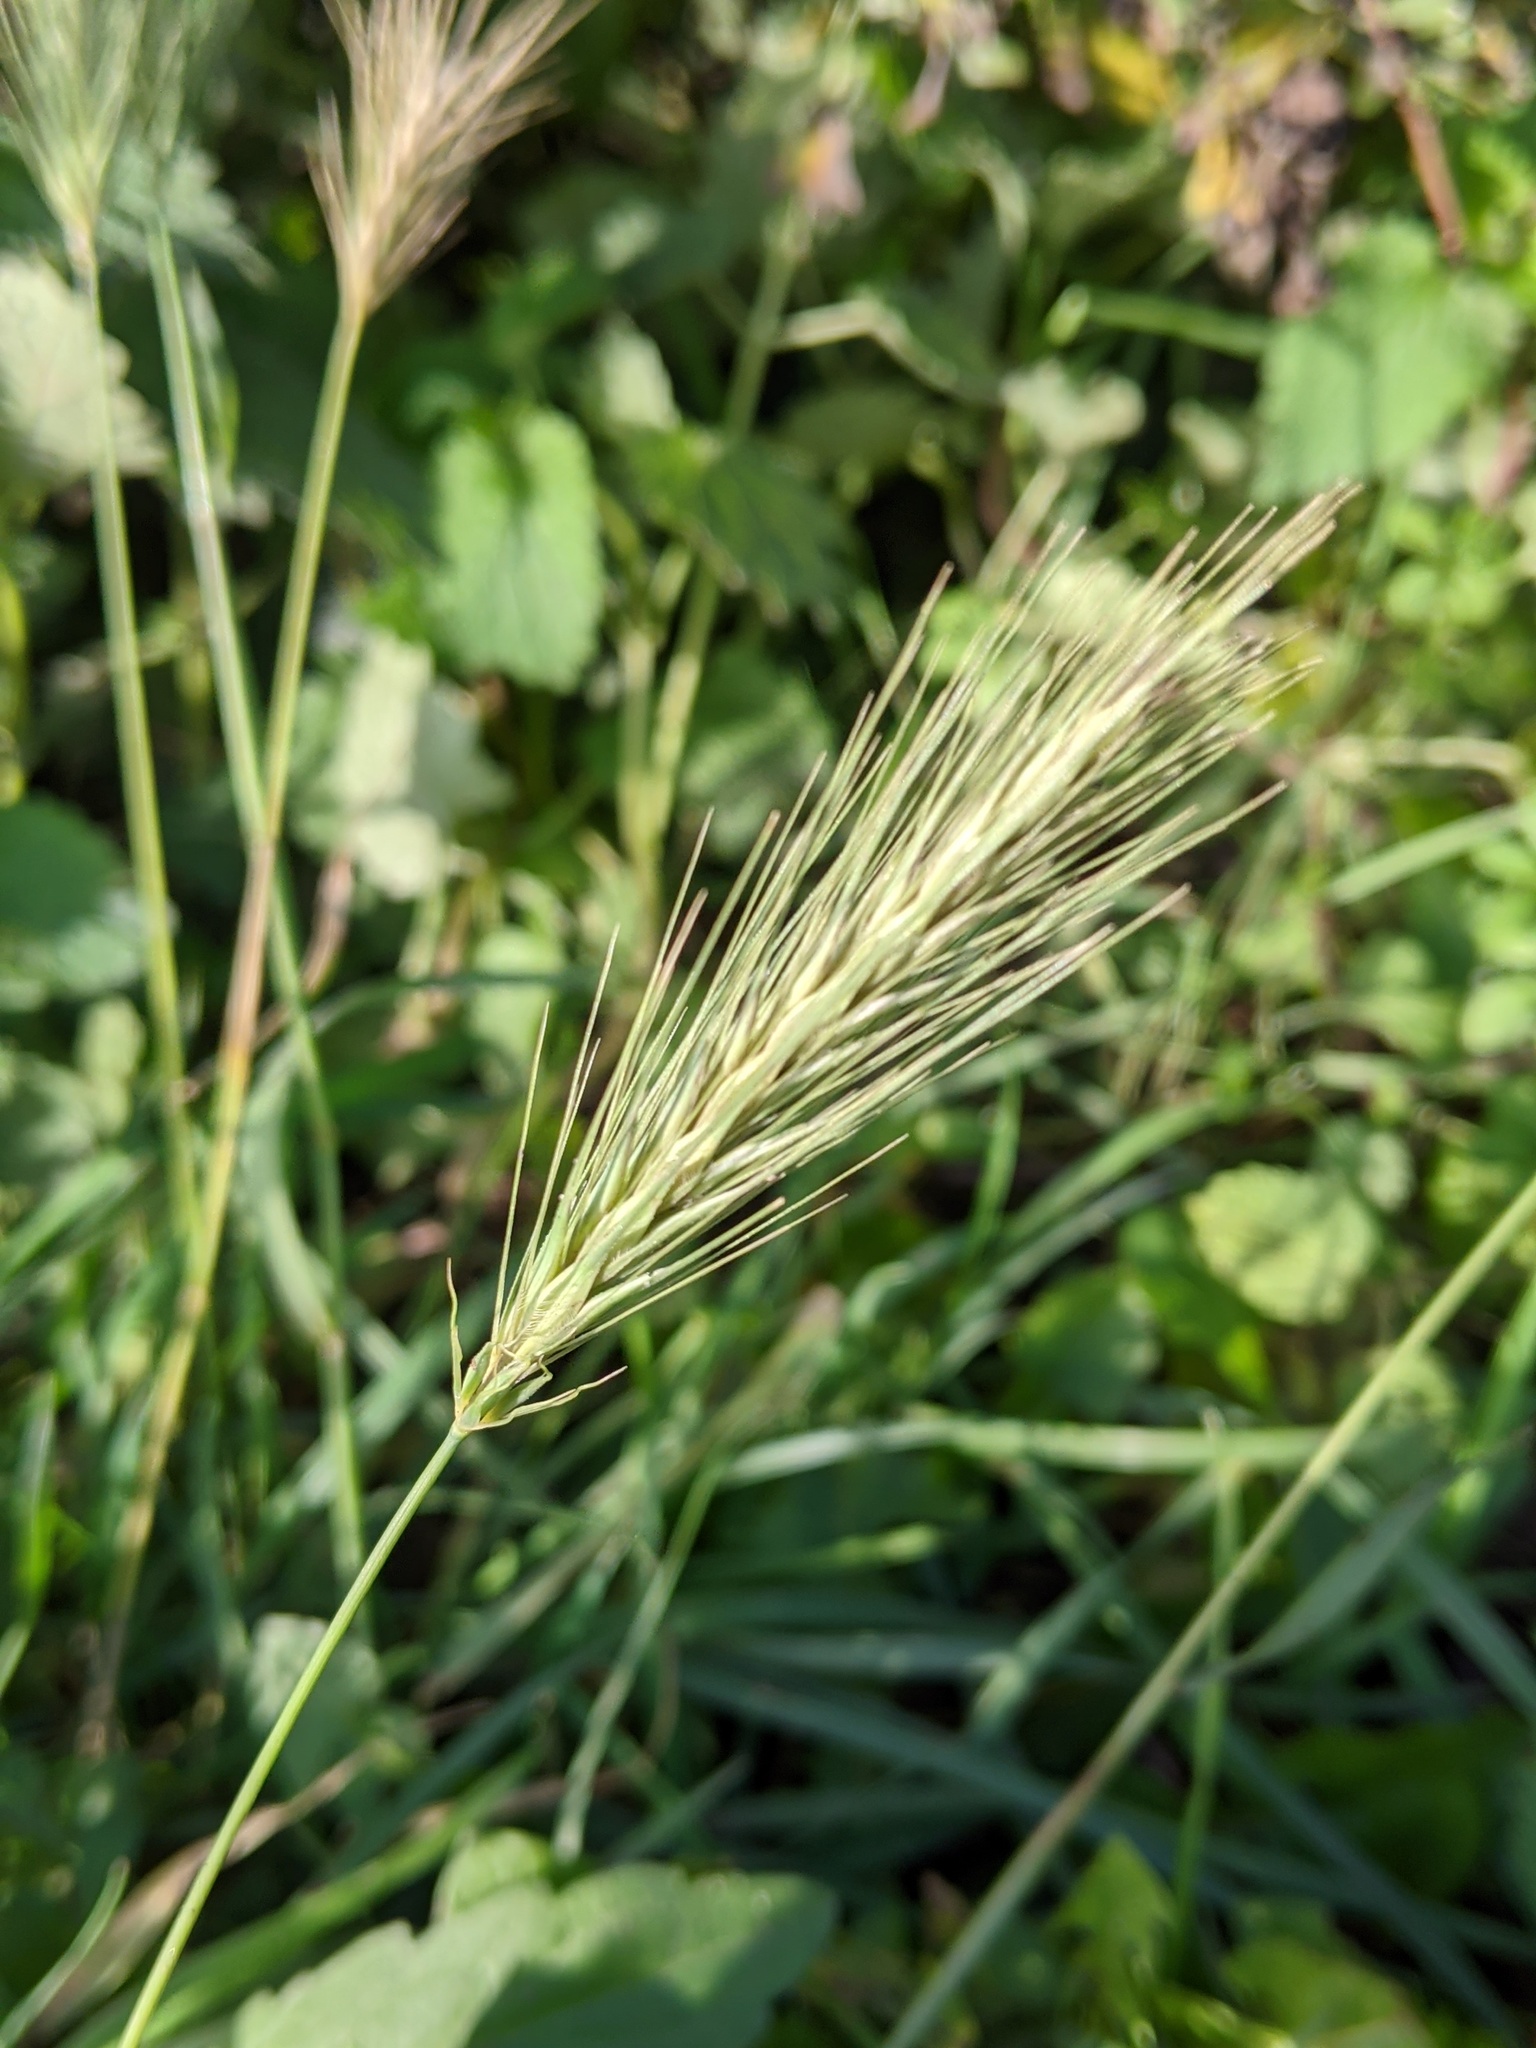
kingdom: Plantae
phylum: Tracheophyta
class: Liliopsida
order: Poales
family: Poaceae
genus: Hordeum
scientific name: Hordeum murinum
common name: Wall barley
